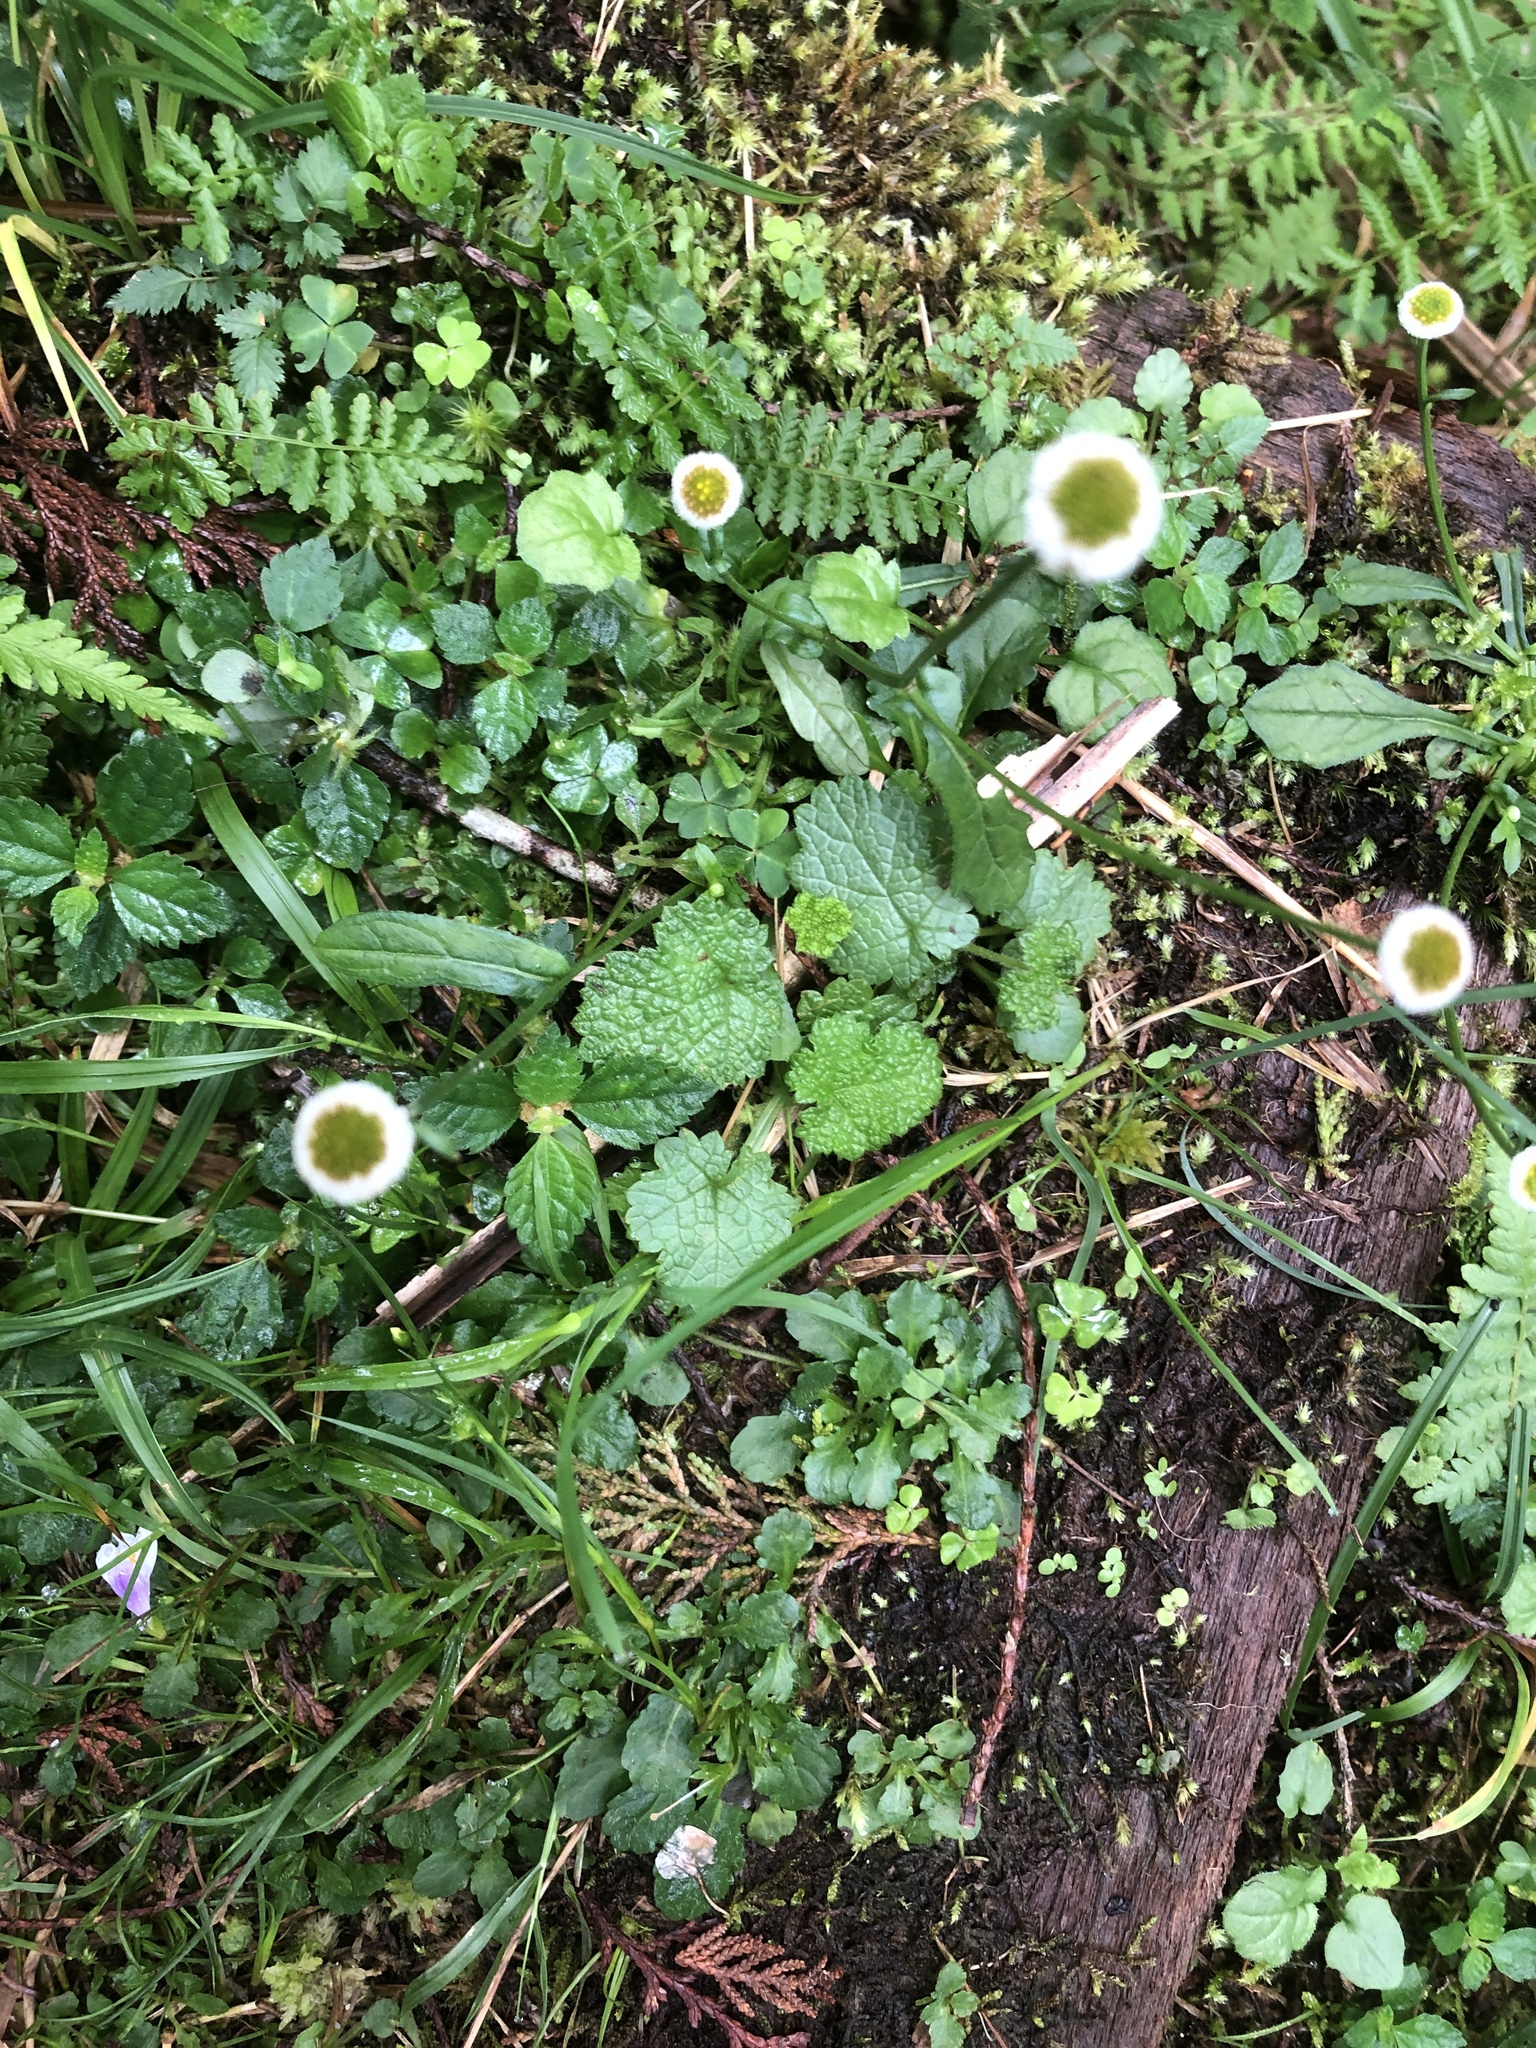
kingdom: Plantae
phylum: Tracheophyta
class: Magnoliopsida
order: Asterales
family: Asteraceae
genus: Myriactis
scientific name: Myriactis humilis
